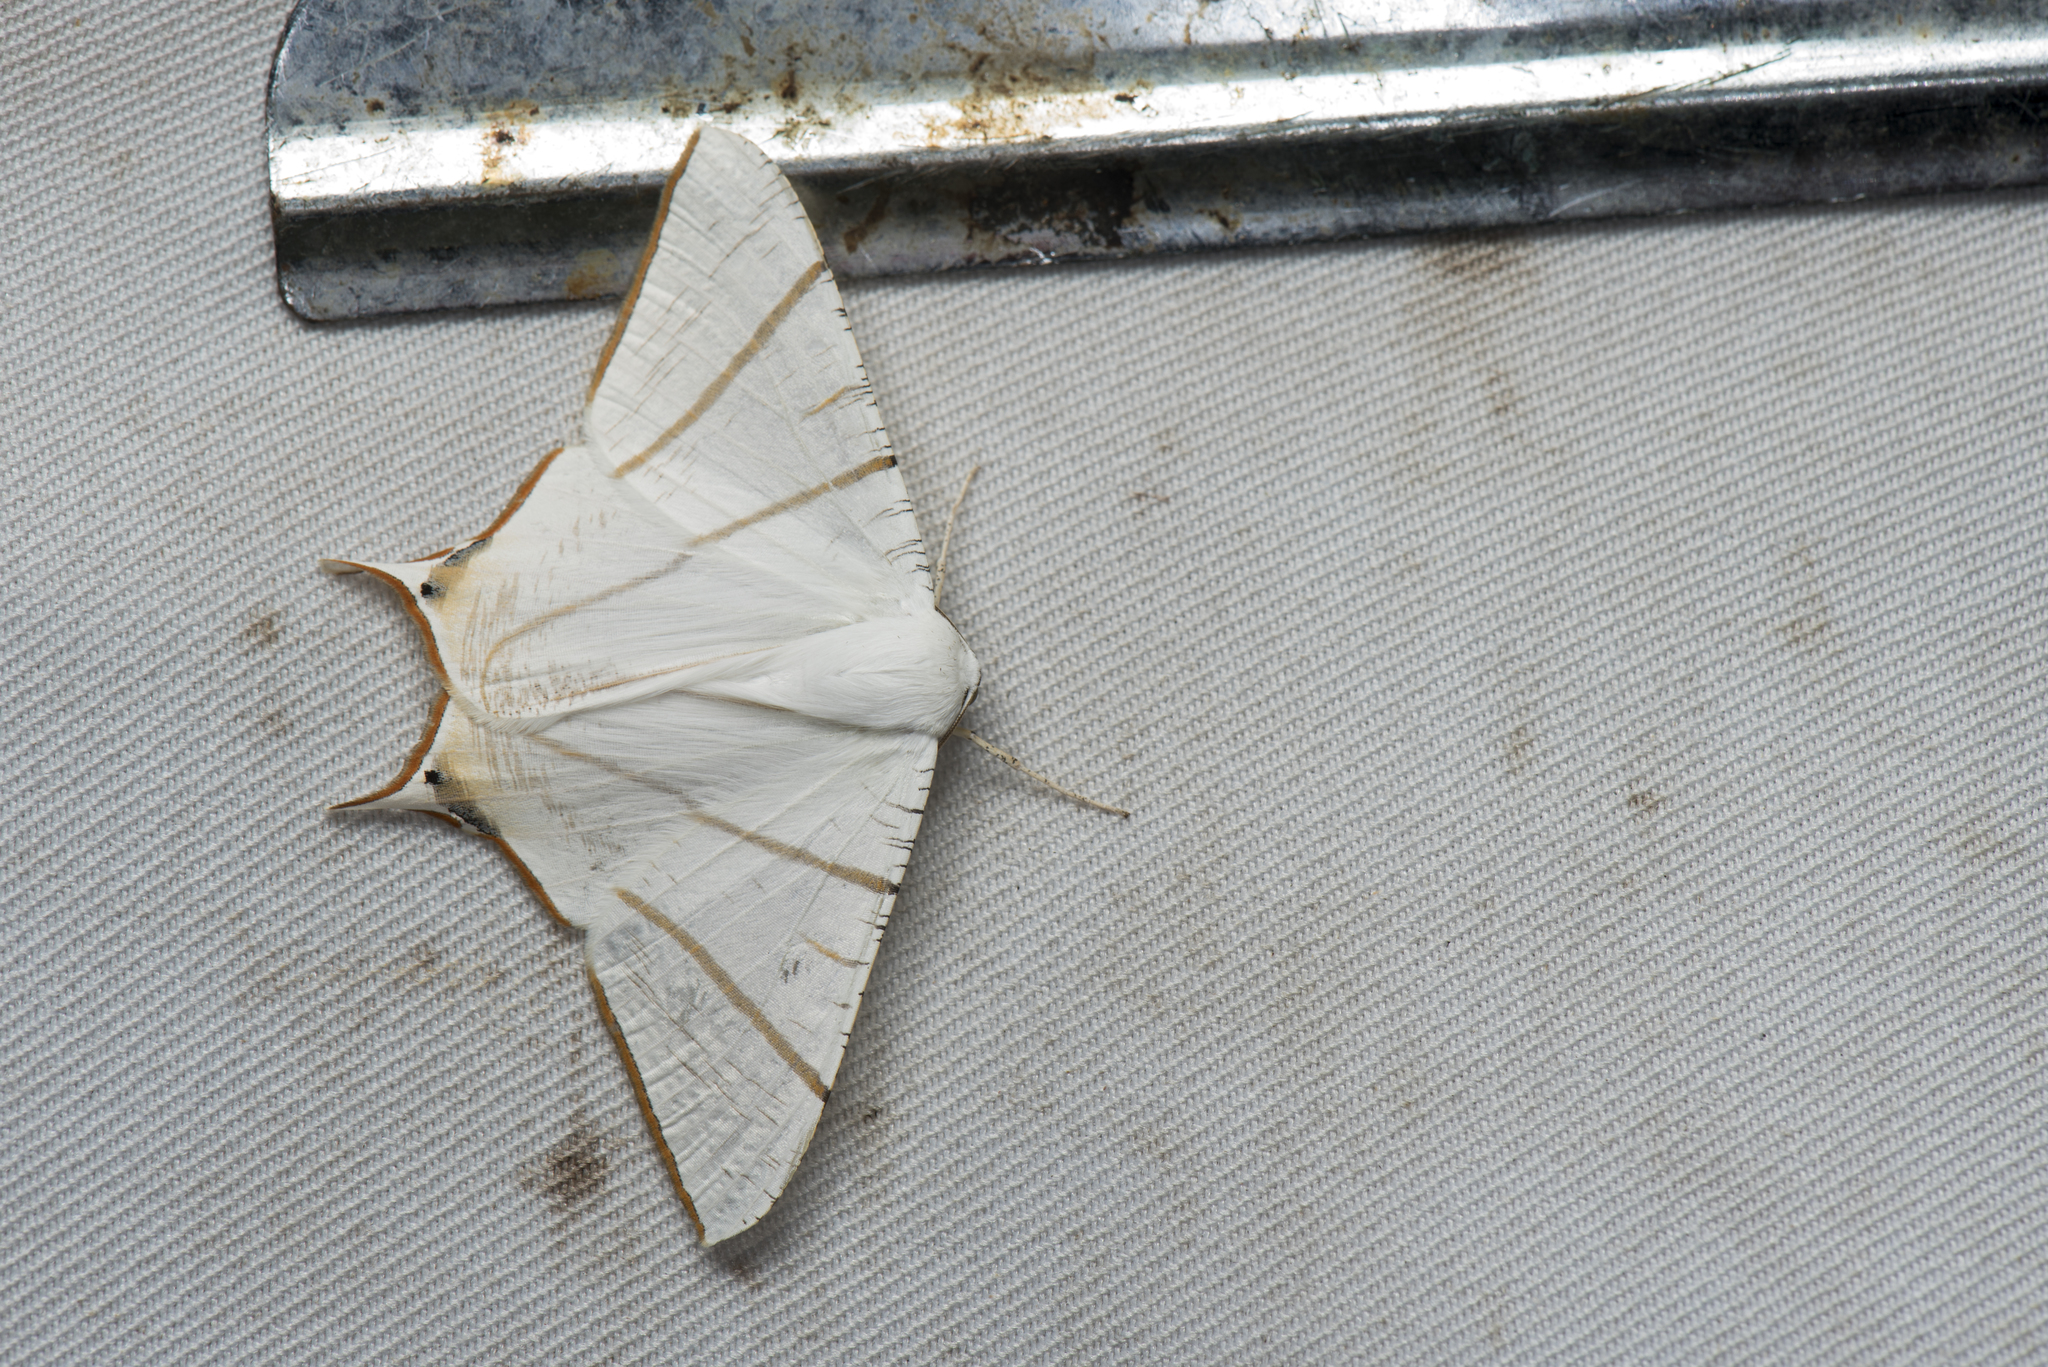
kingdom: Animalia
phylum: Arthropoda
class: Insecta
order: Lepidoptera
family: Geometridae
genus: Ourapteryx
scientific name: Ourapteryx clara
